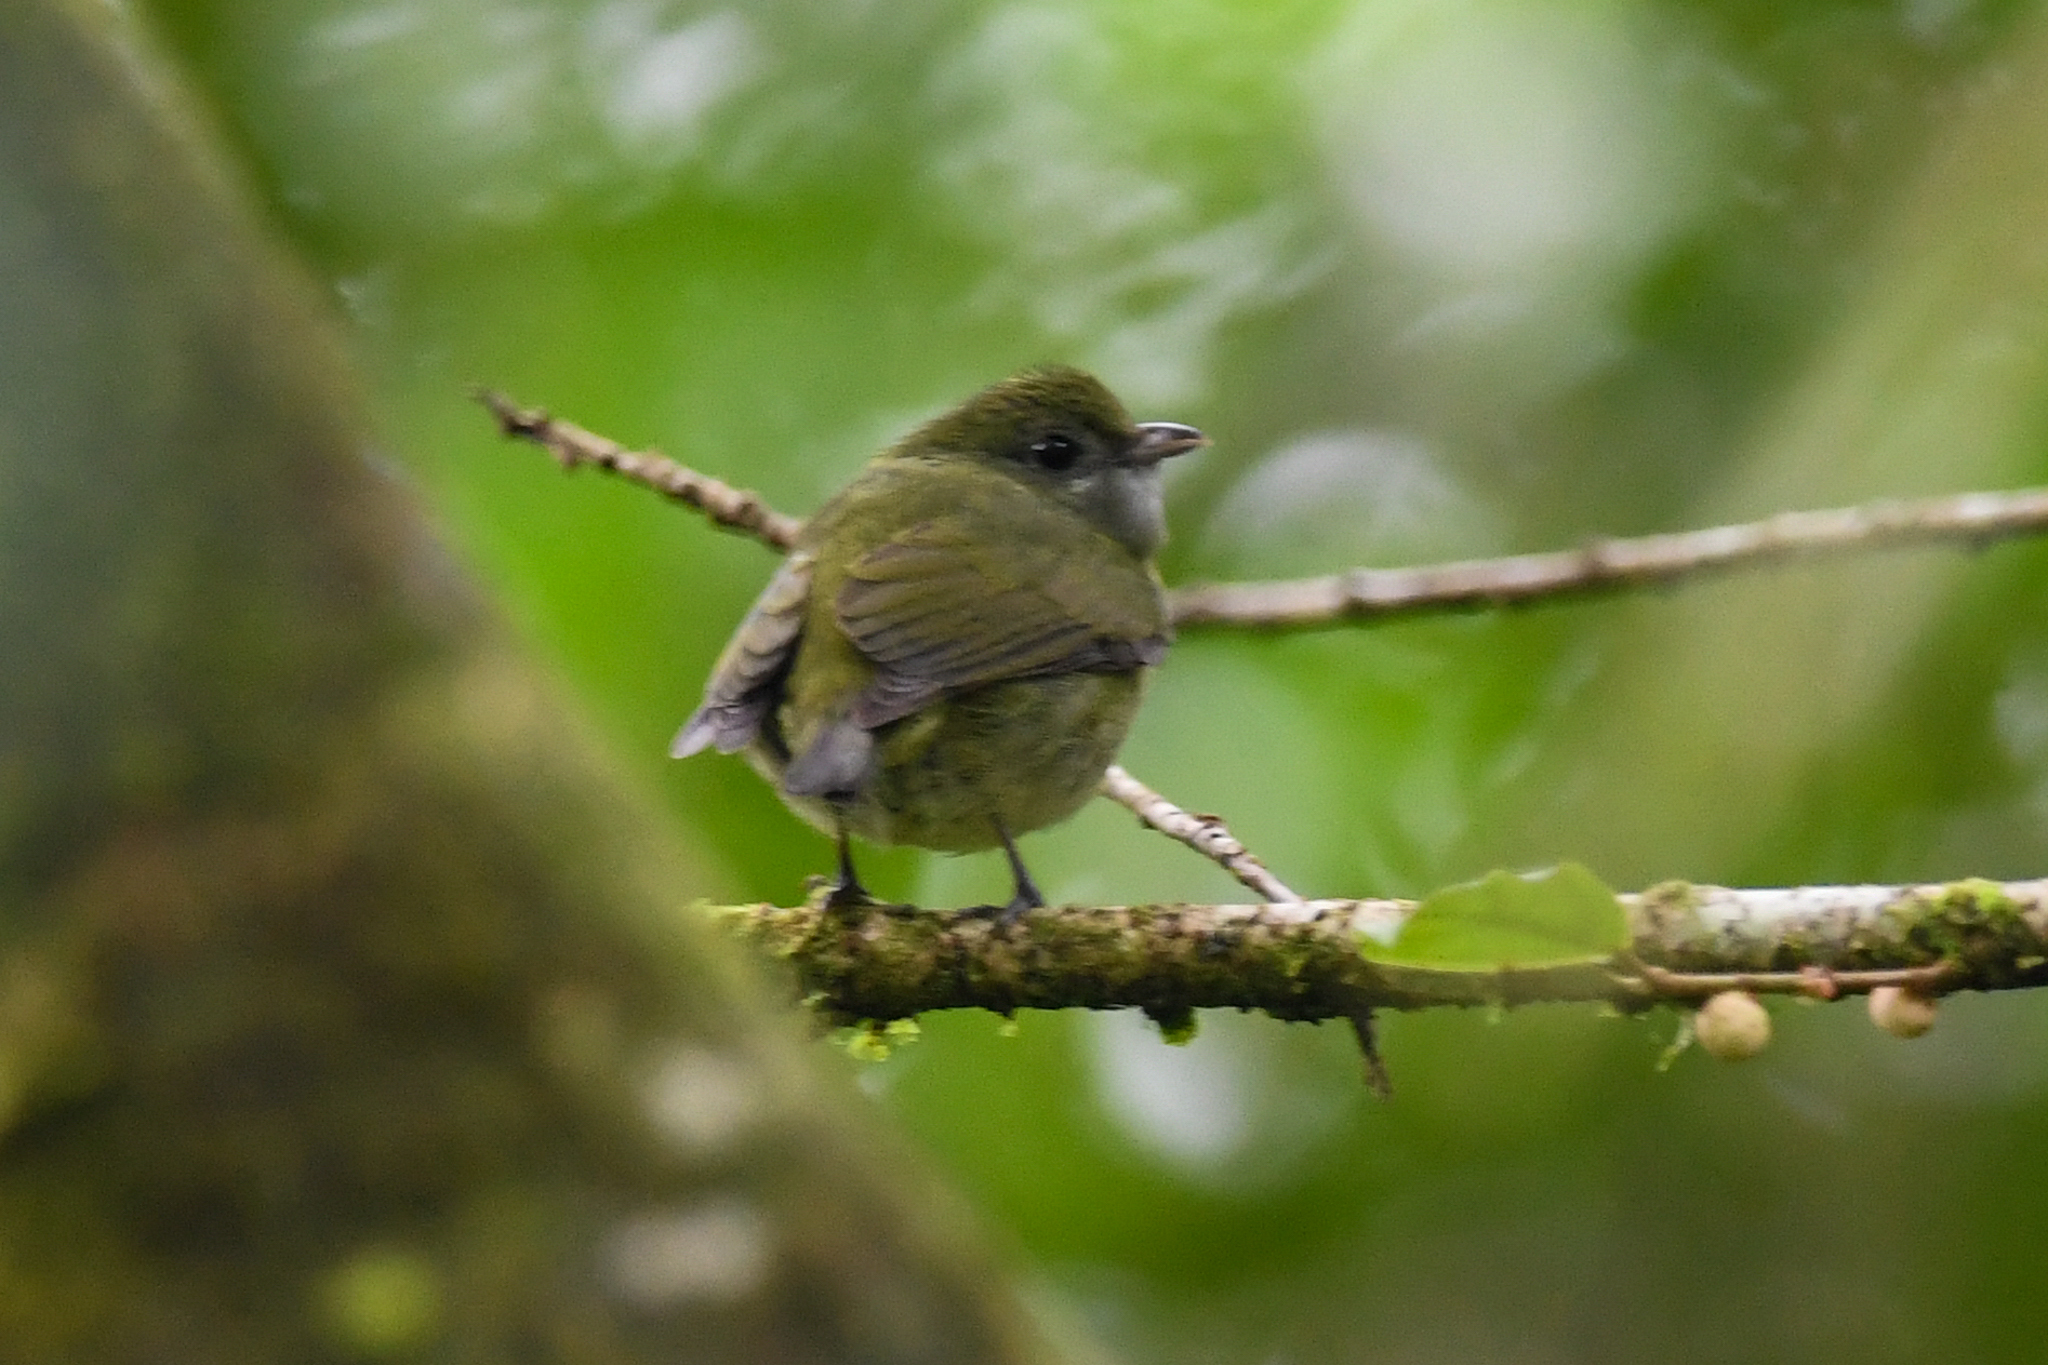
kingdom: Animalia
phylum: Chordata
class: Aves
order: Passeriformes
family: Pipridae
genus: Corapipo
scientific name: Corapipo altera
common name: White-ruffed manakin
